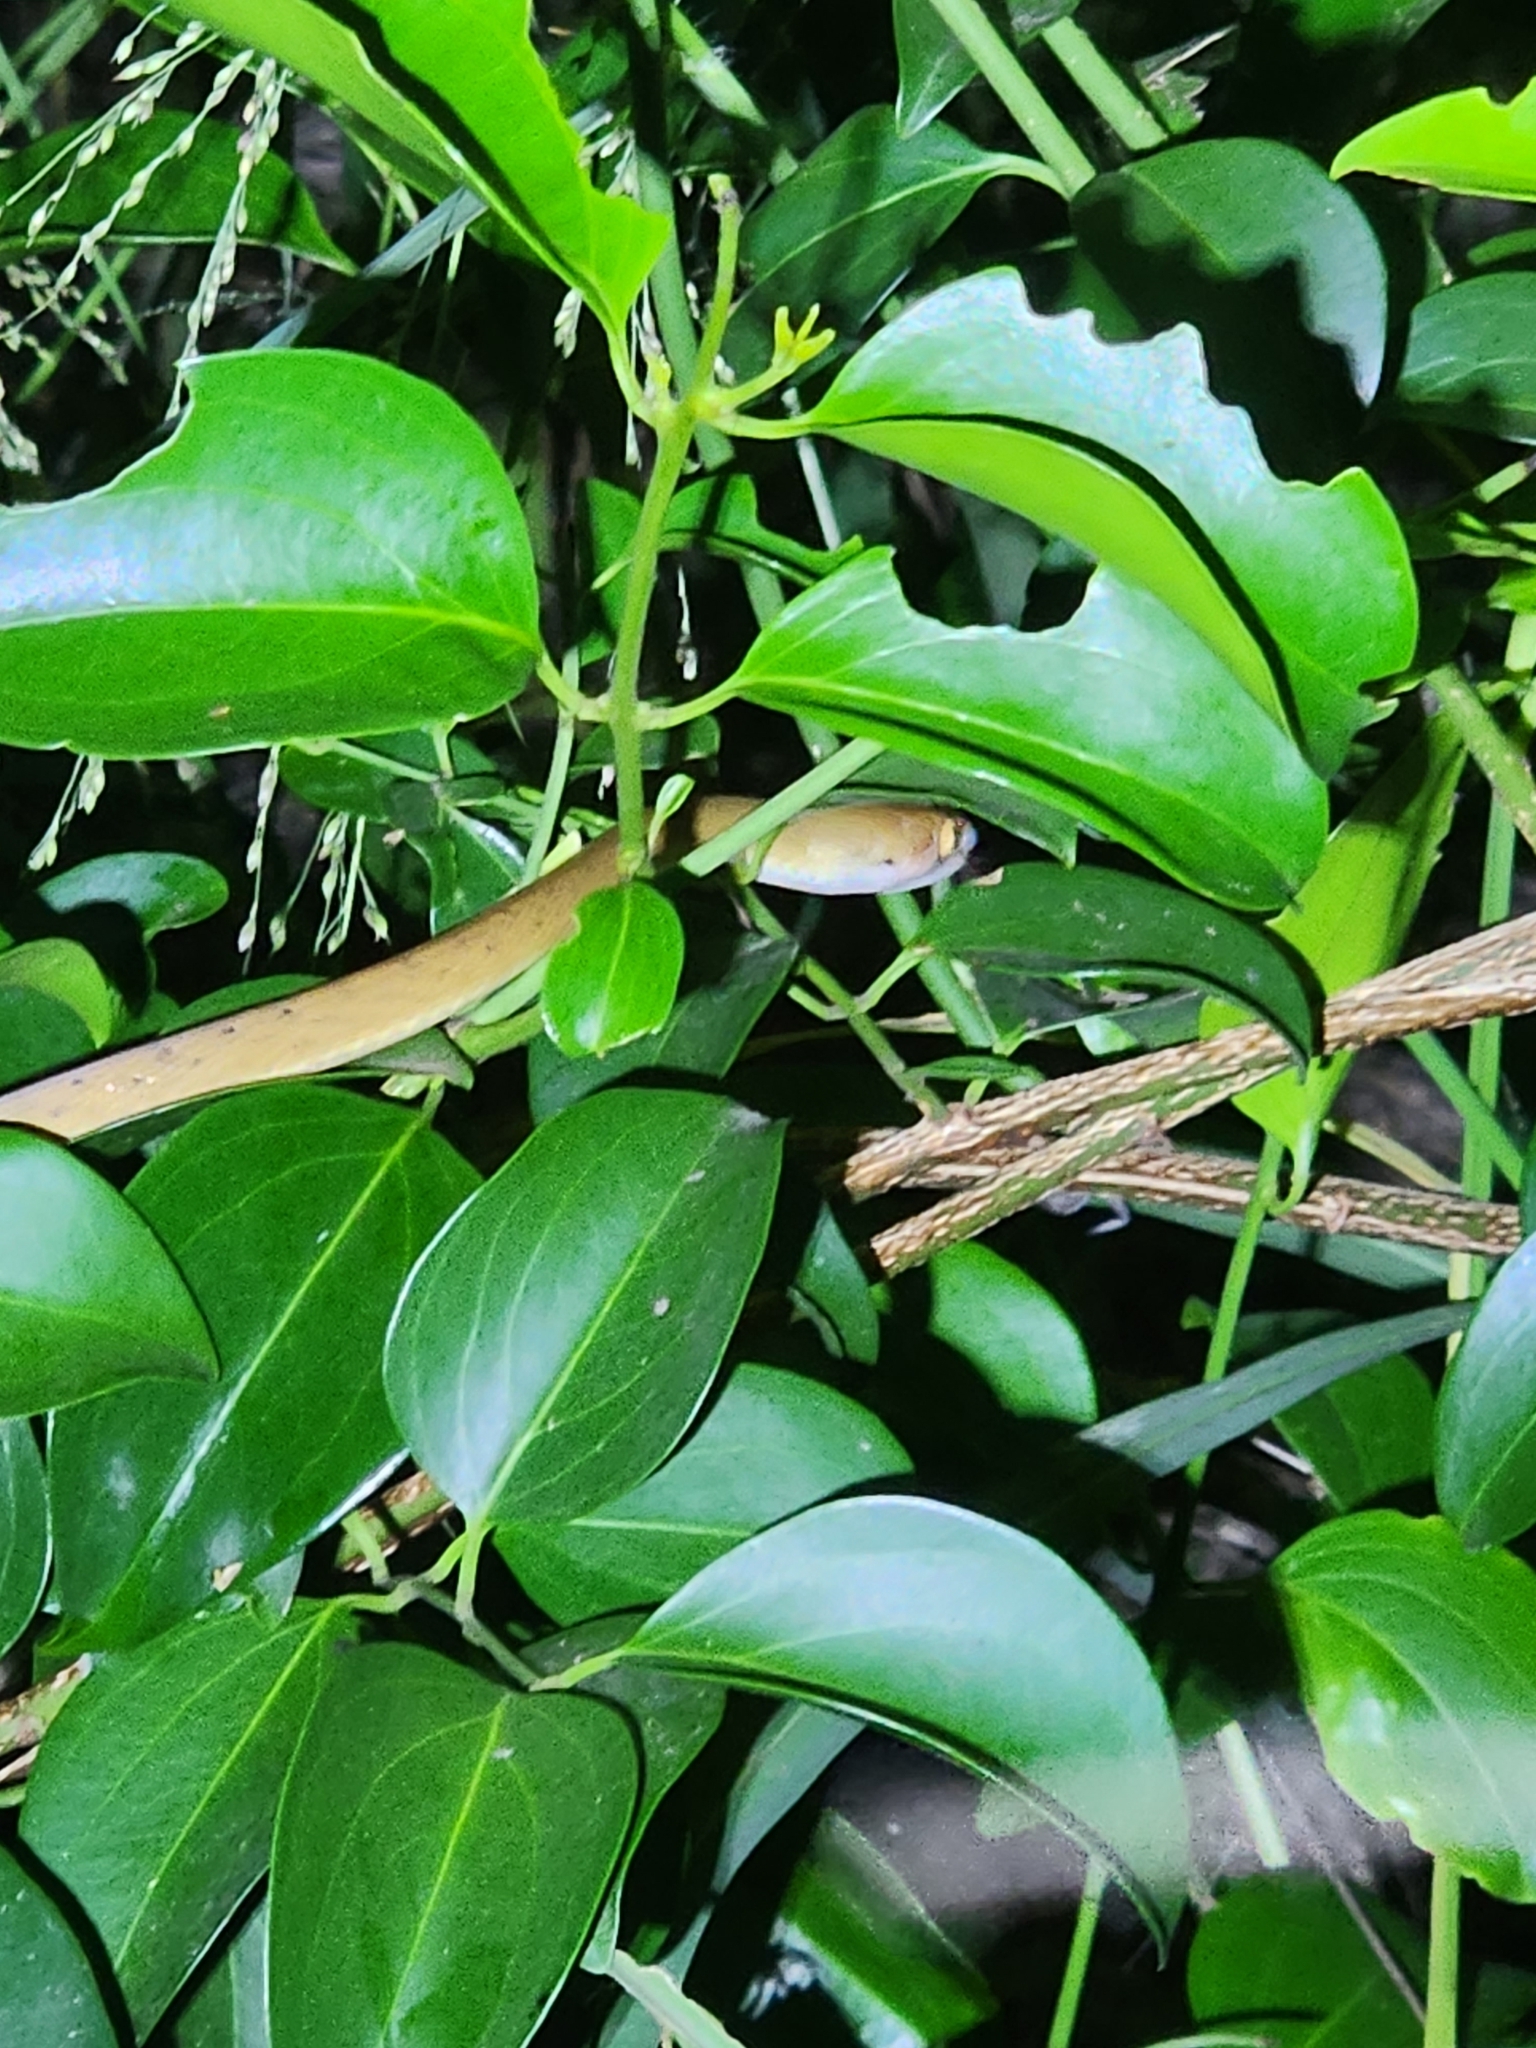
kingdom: Animalia
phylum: Chordata
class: Squamata
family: Colubridae
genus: Boiga
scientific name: Boiga irregularis
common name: Brown tree snake
